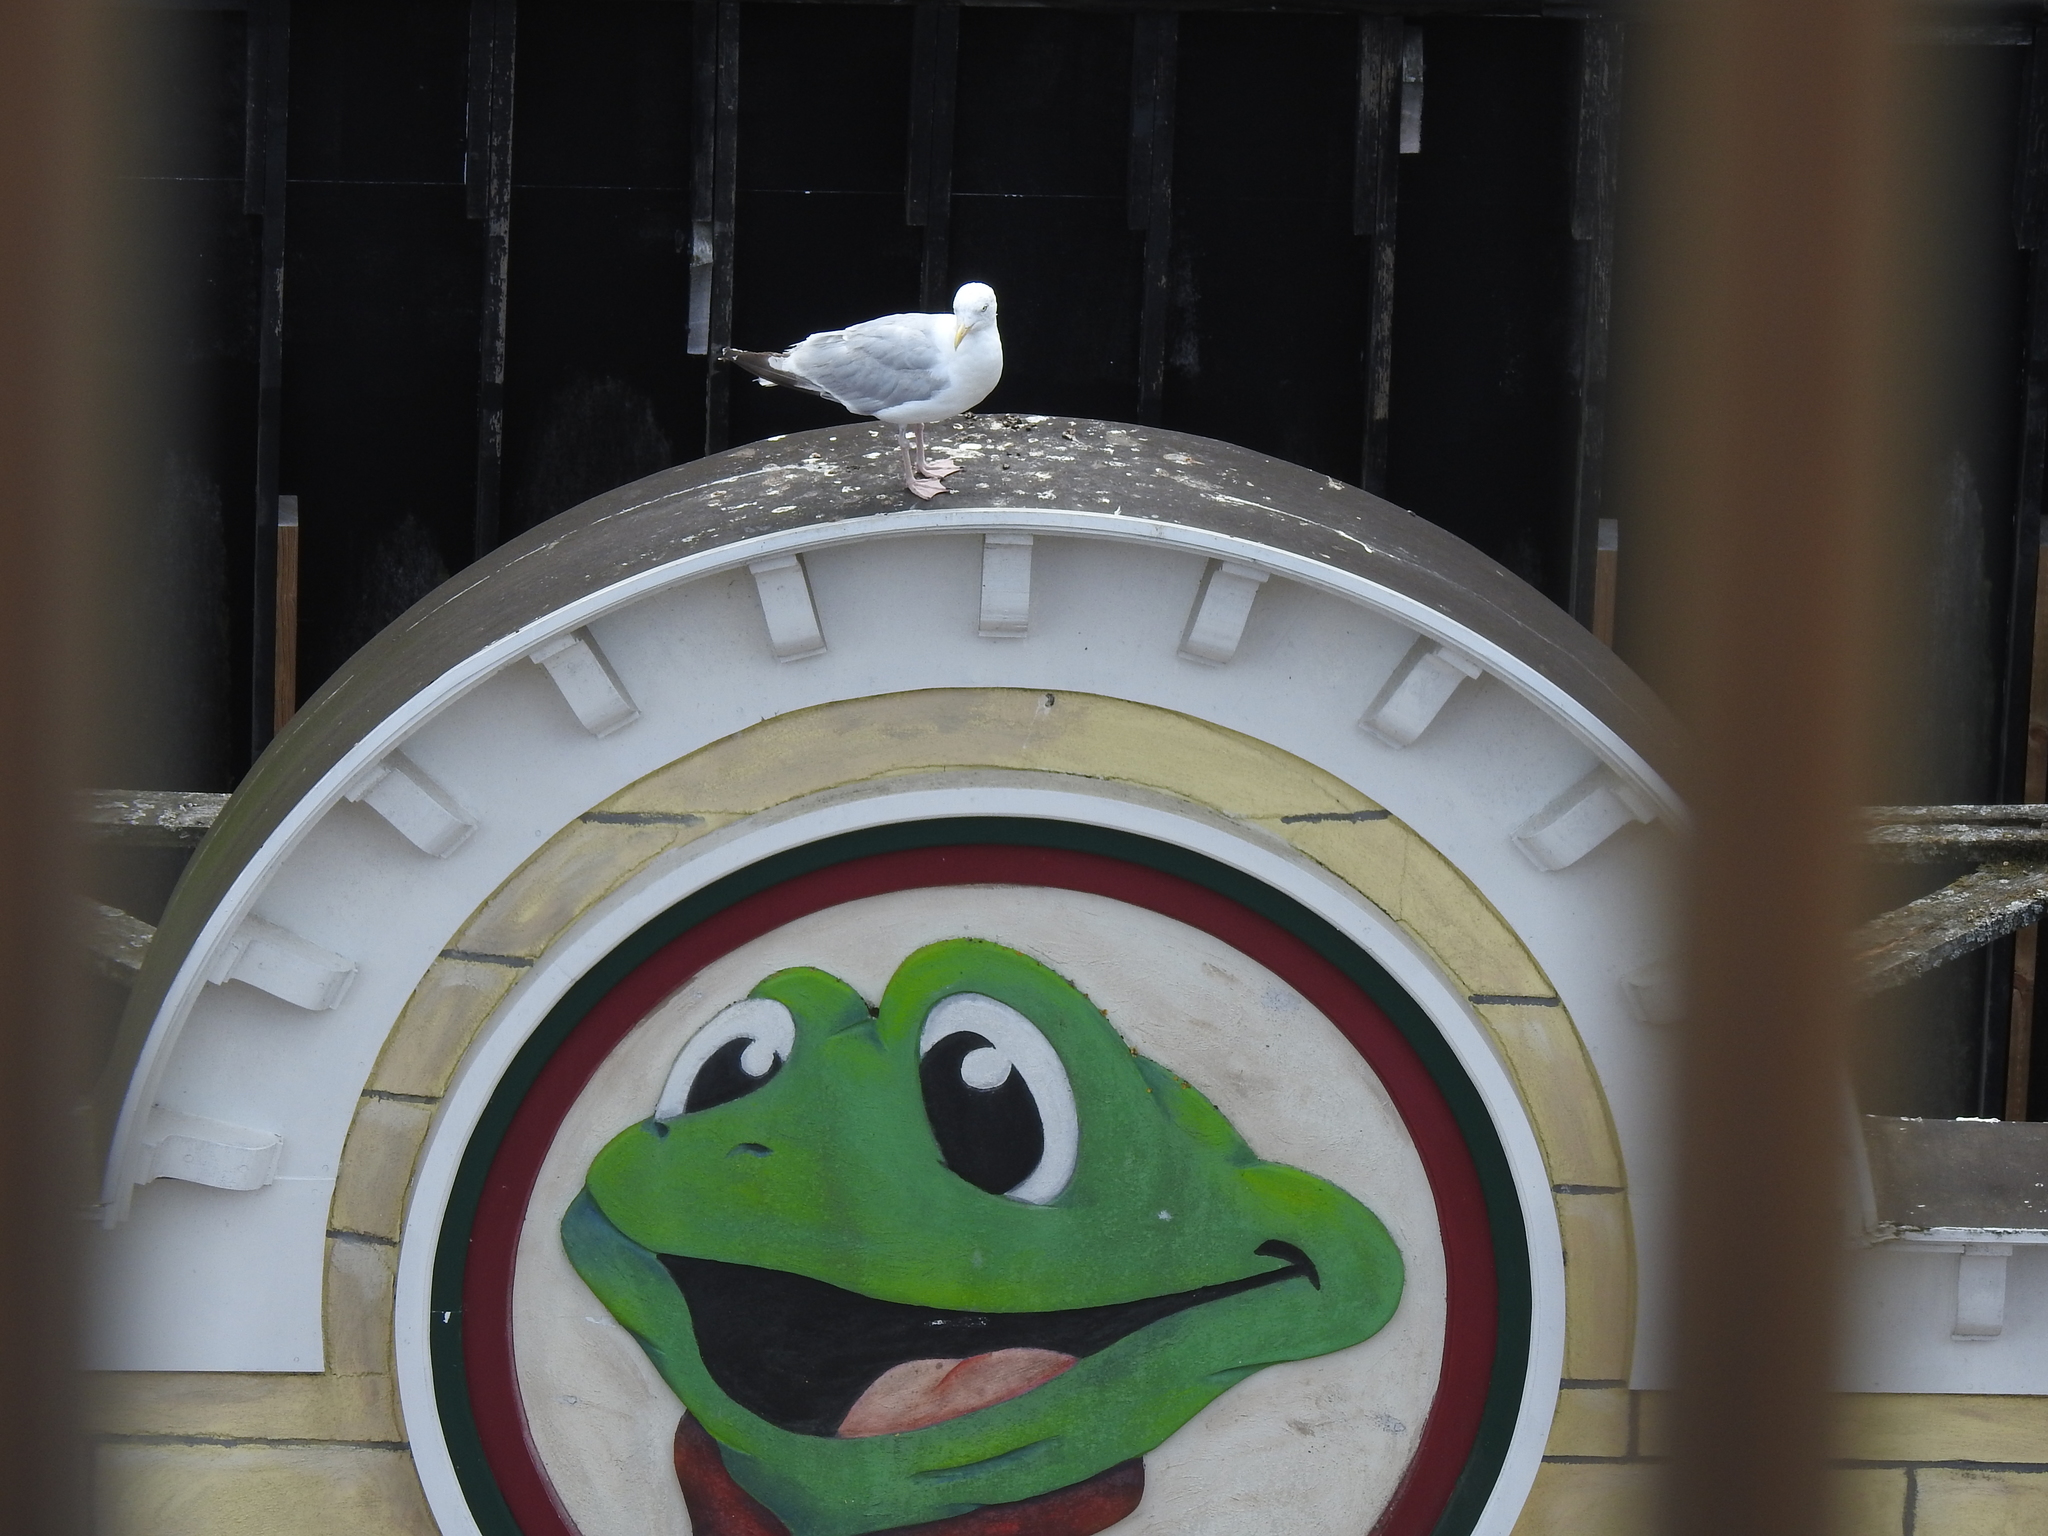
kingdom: Animalia
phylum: Chordata
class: Aves
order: Charadriiformes
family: Laridae
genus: Larus
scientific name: Larus argentatus
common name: Herring gull
